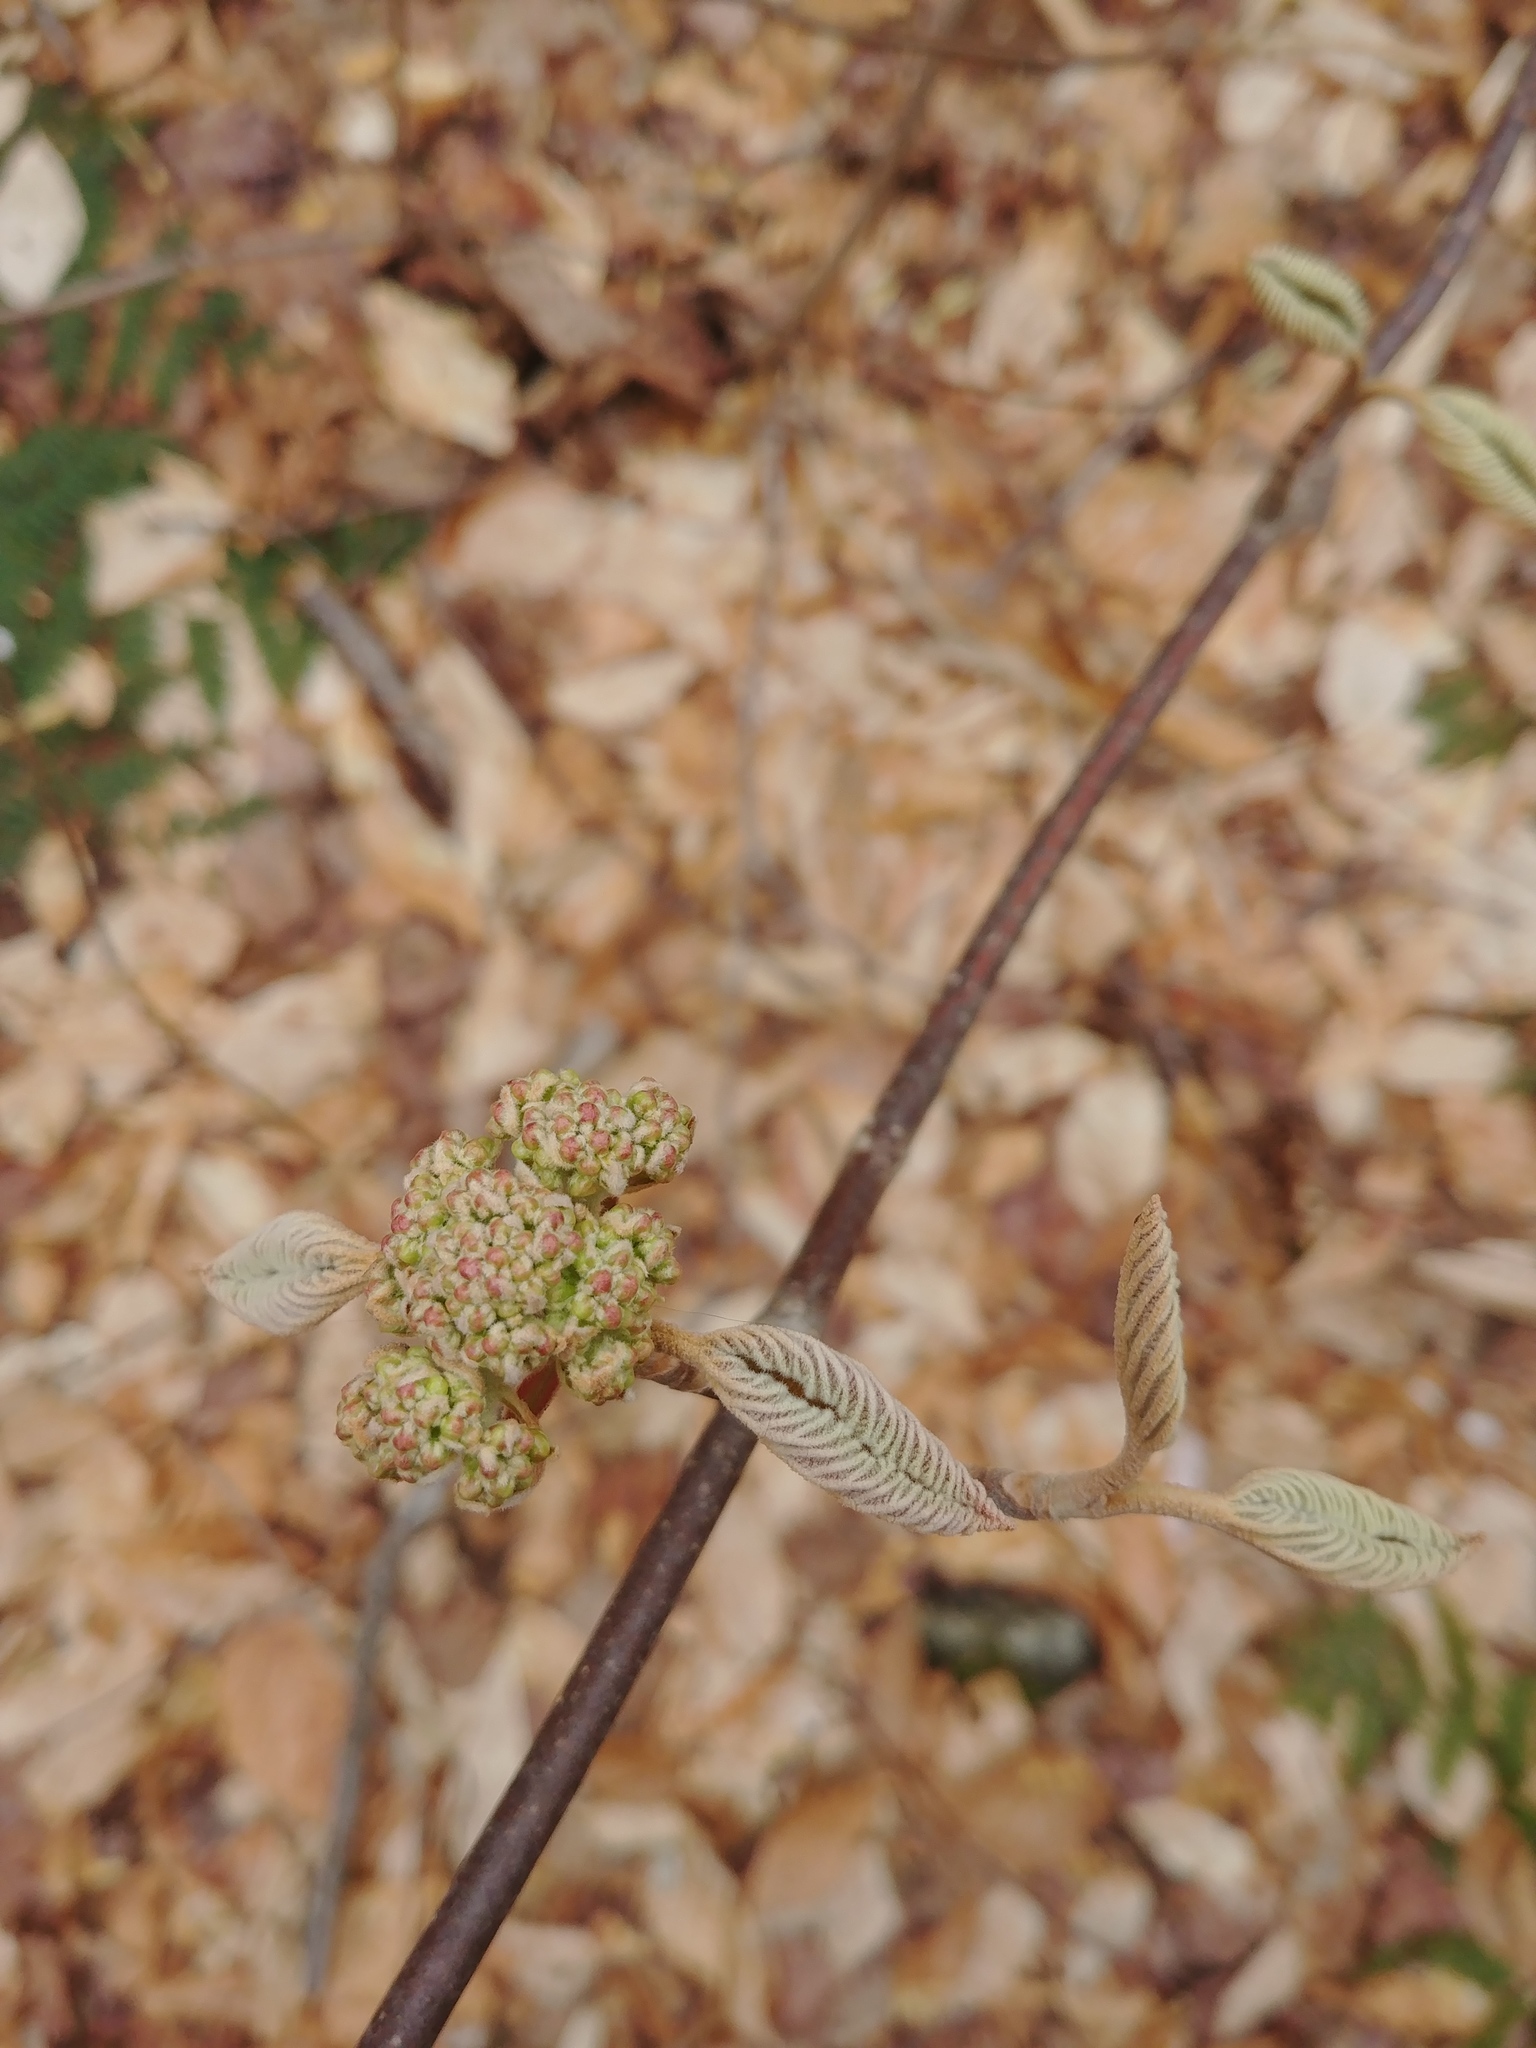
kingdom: Plantae
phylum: Tracheophyta
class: Magnoliopsida
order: Dipsacales
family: Viburnaceae
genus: Viburnum
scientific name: Viburnum lantanoides
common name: Hobblebush
